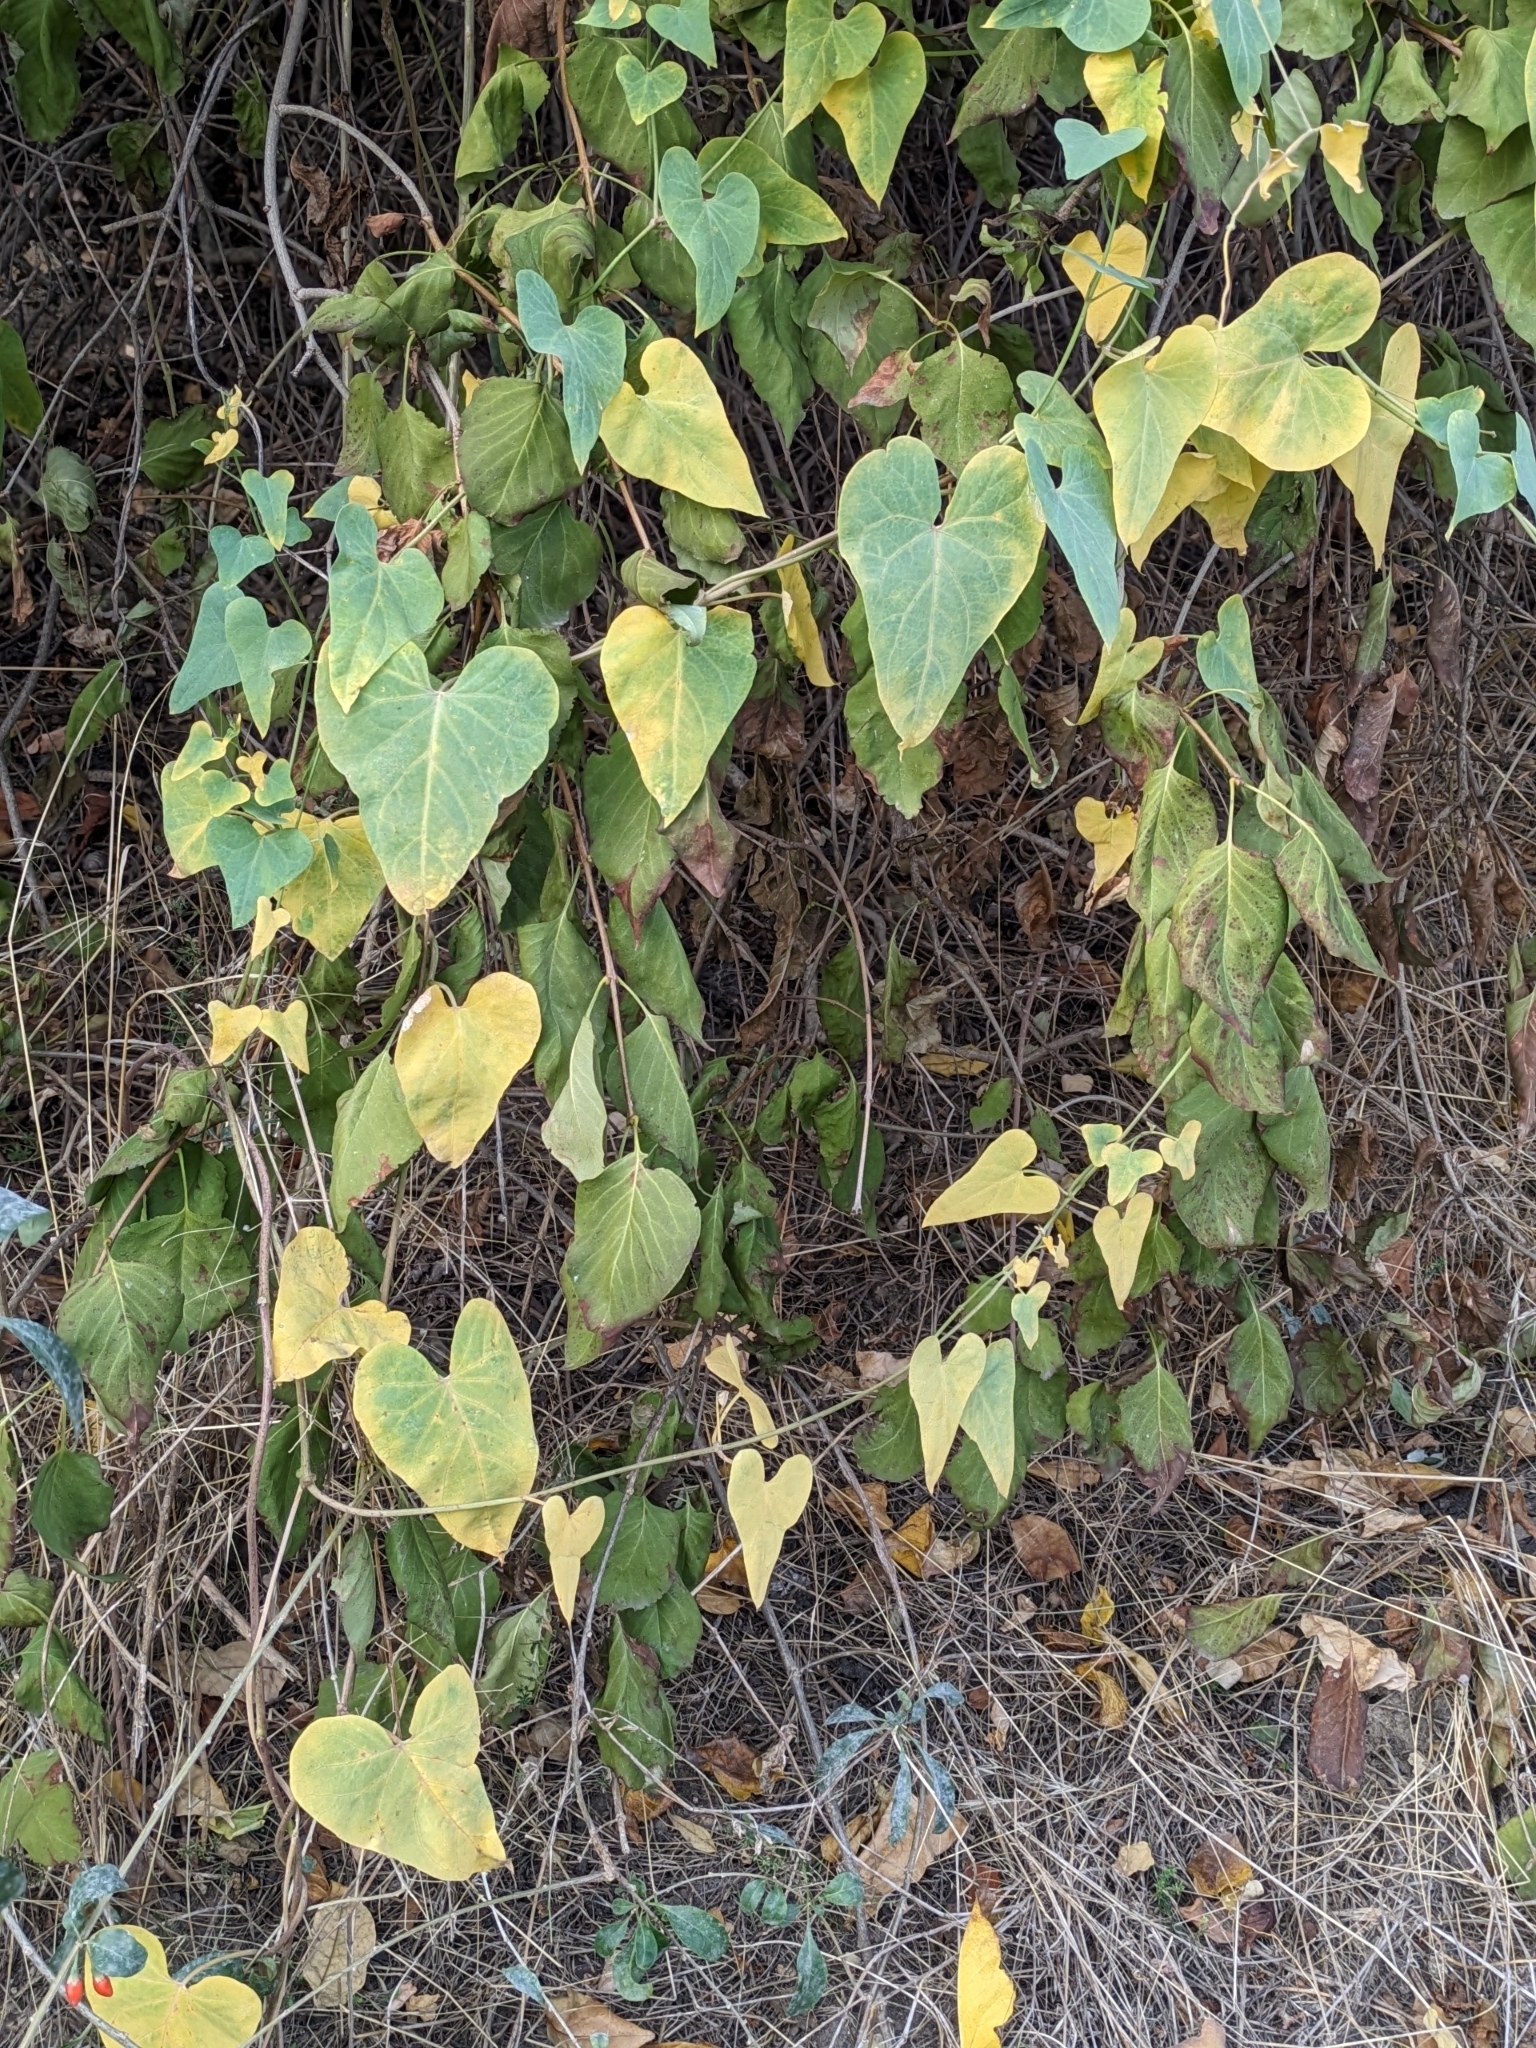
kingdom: Plantae
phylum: Tracheophyta
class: Magnoliopsida
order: Gentianales
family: Apocynaceae
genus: Cynanchum
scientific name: Cynanchum acutum
